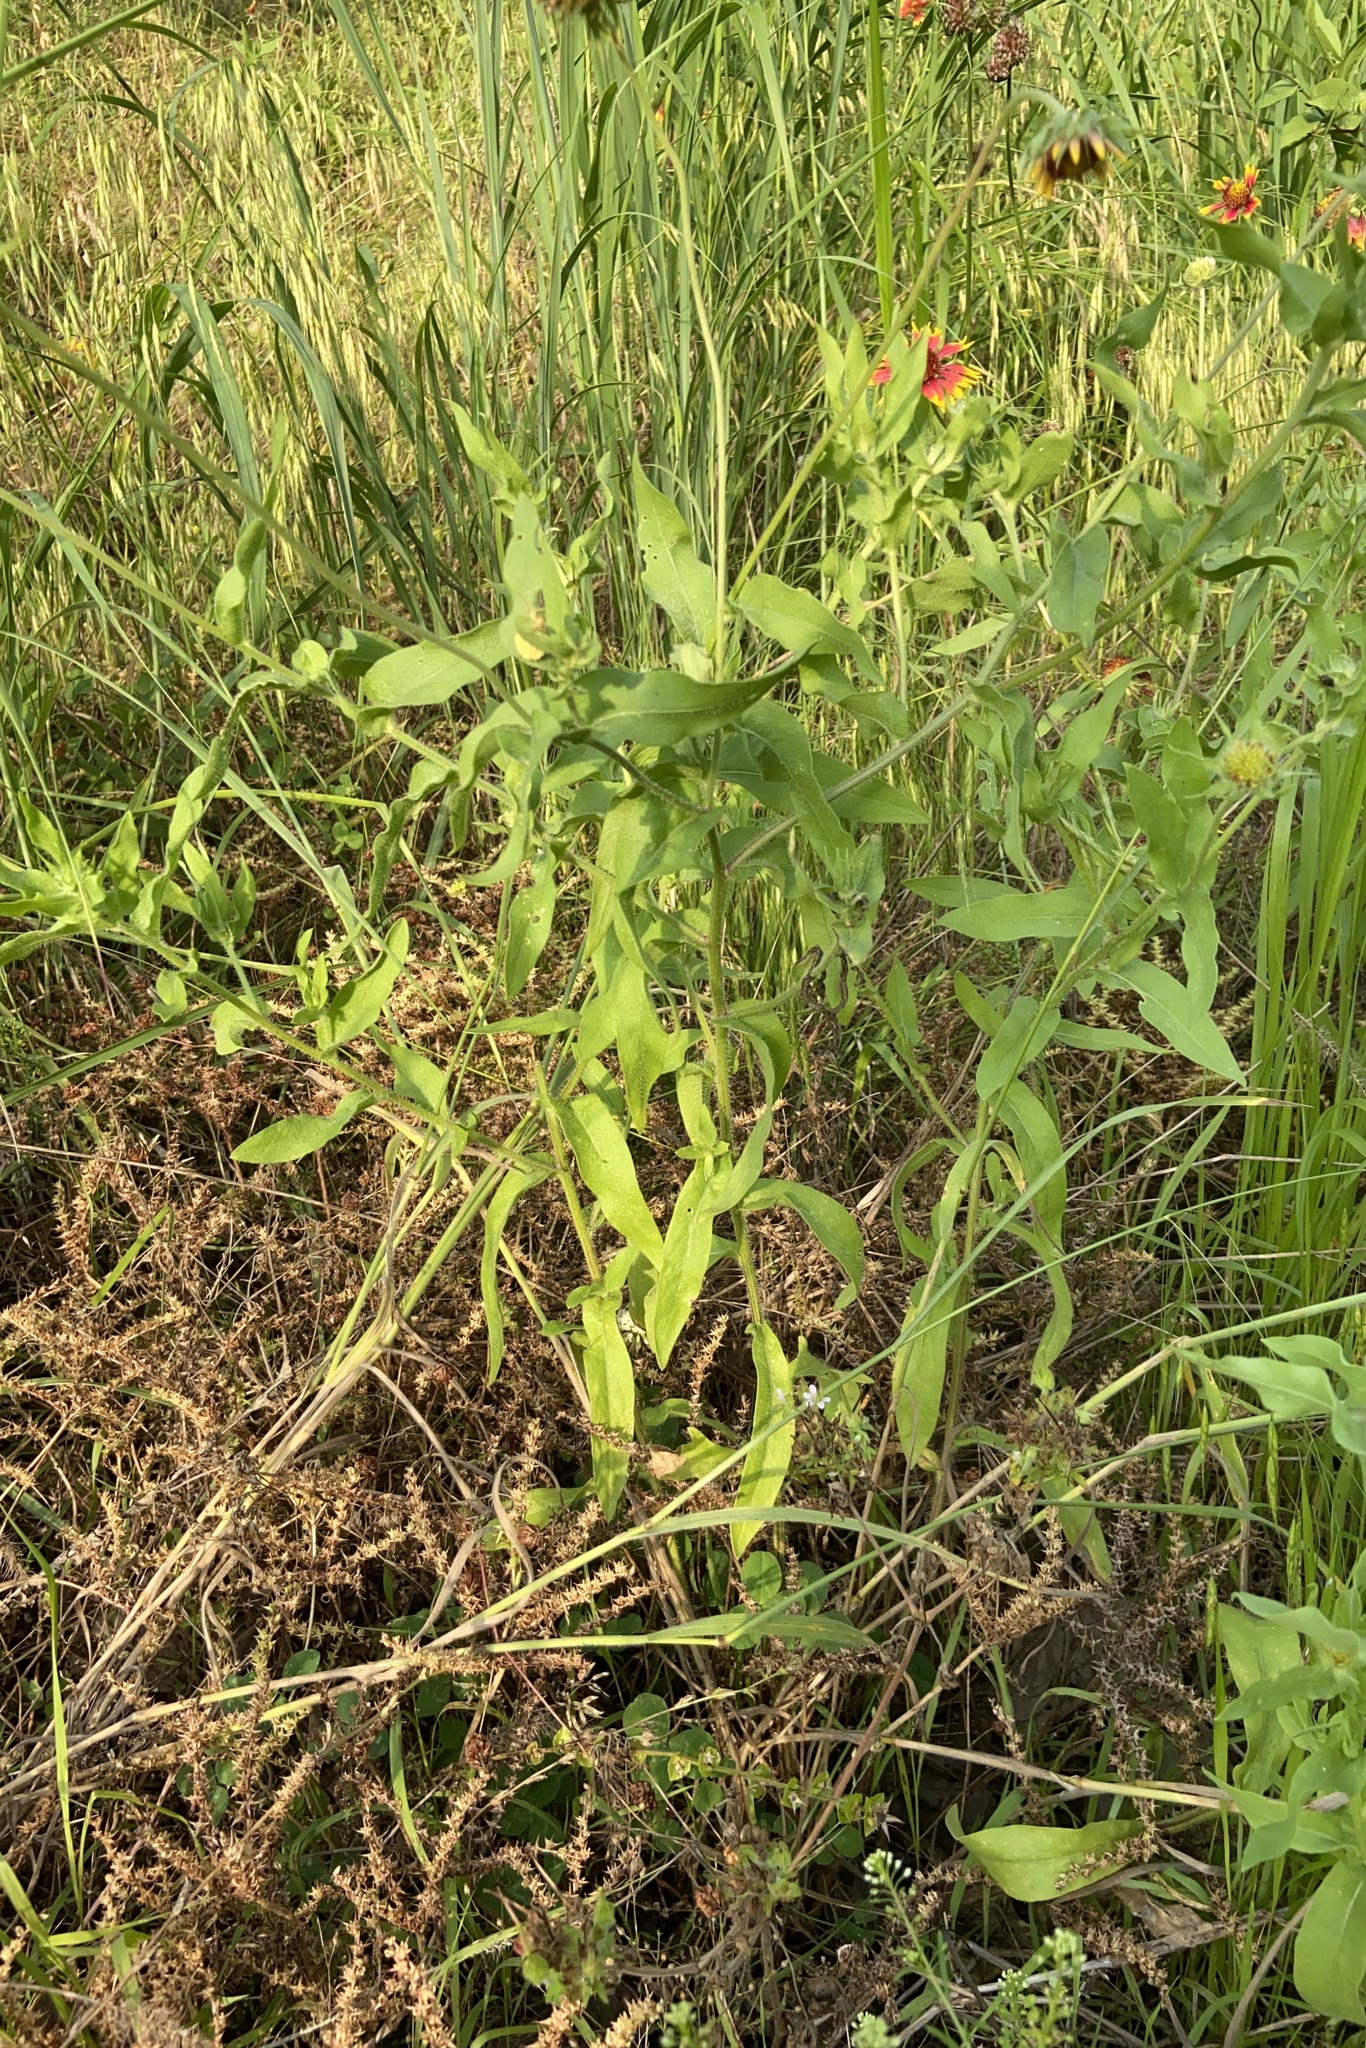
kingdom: Plantae
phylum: Tracheophyta
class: Magnoliopsida
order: Asterales
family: Asteraceae
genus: Gaillardia
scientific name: Gaillardia pulchella
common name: Firewheel
